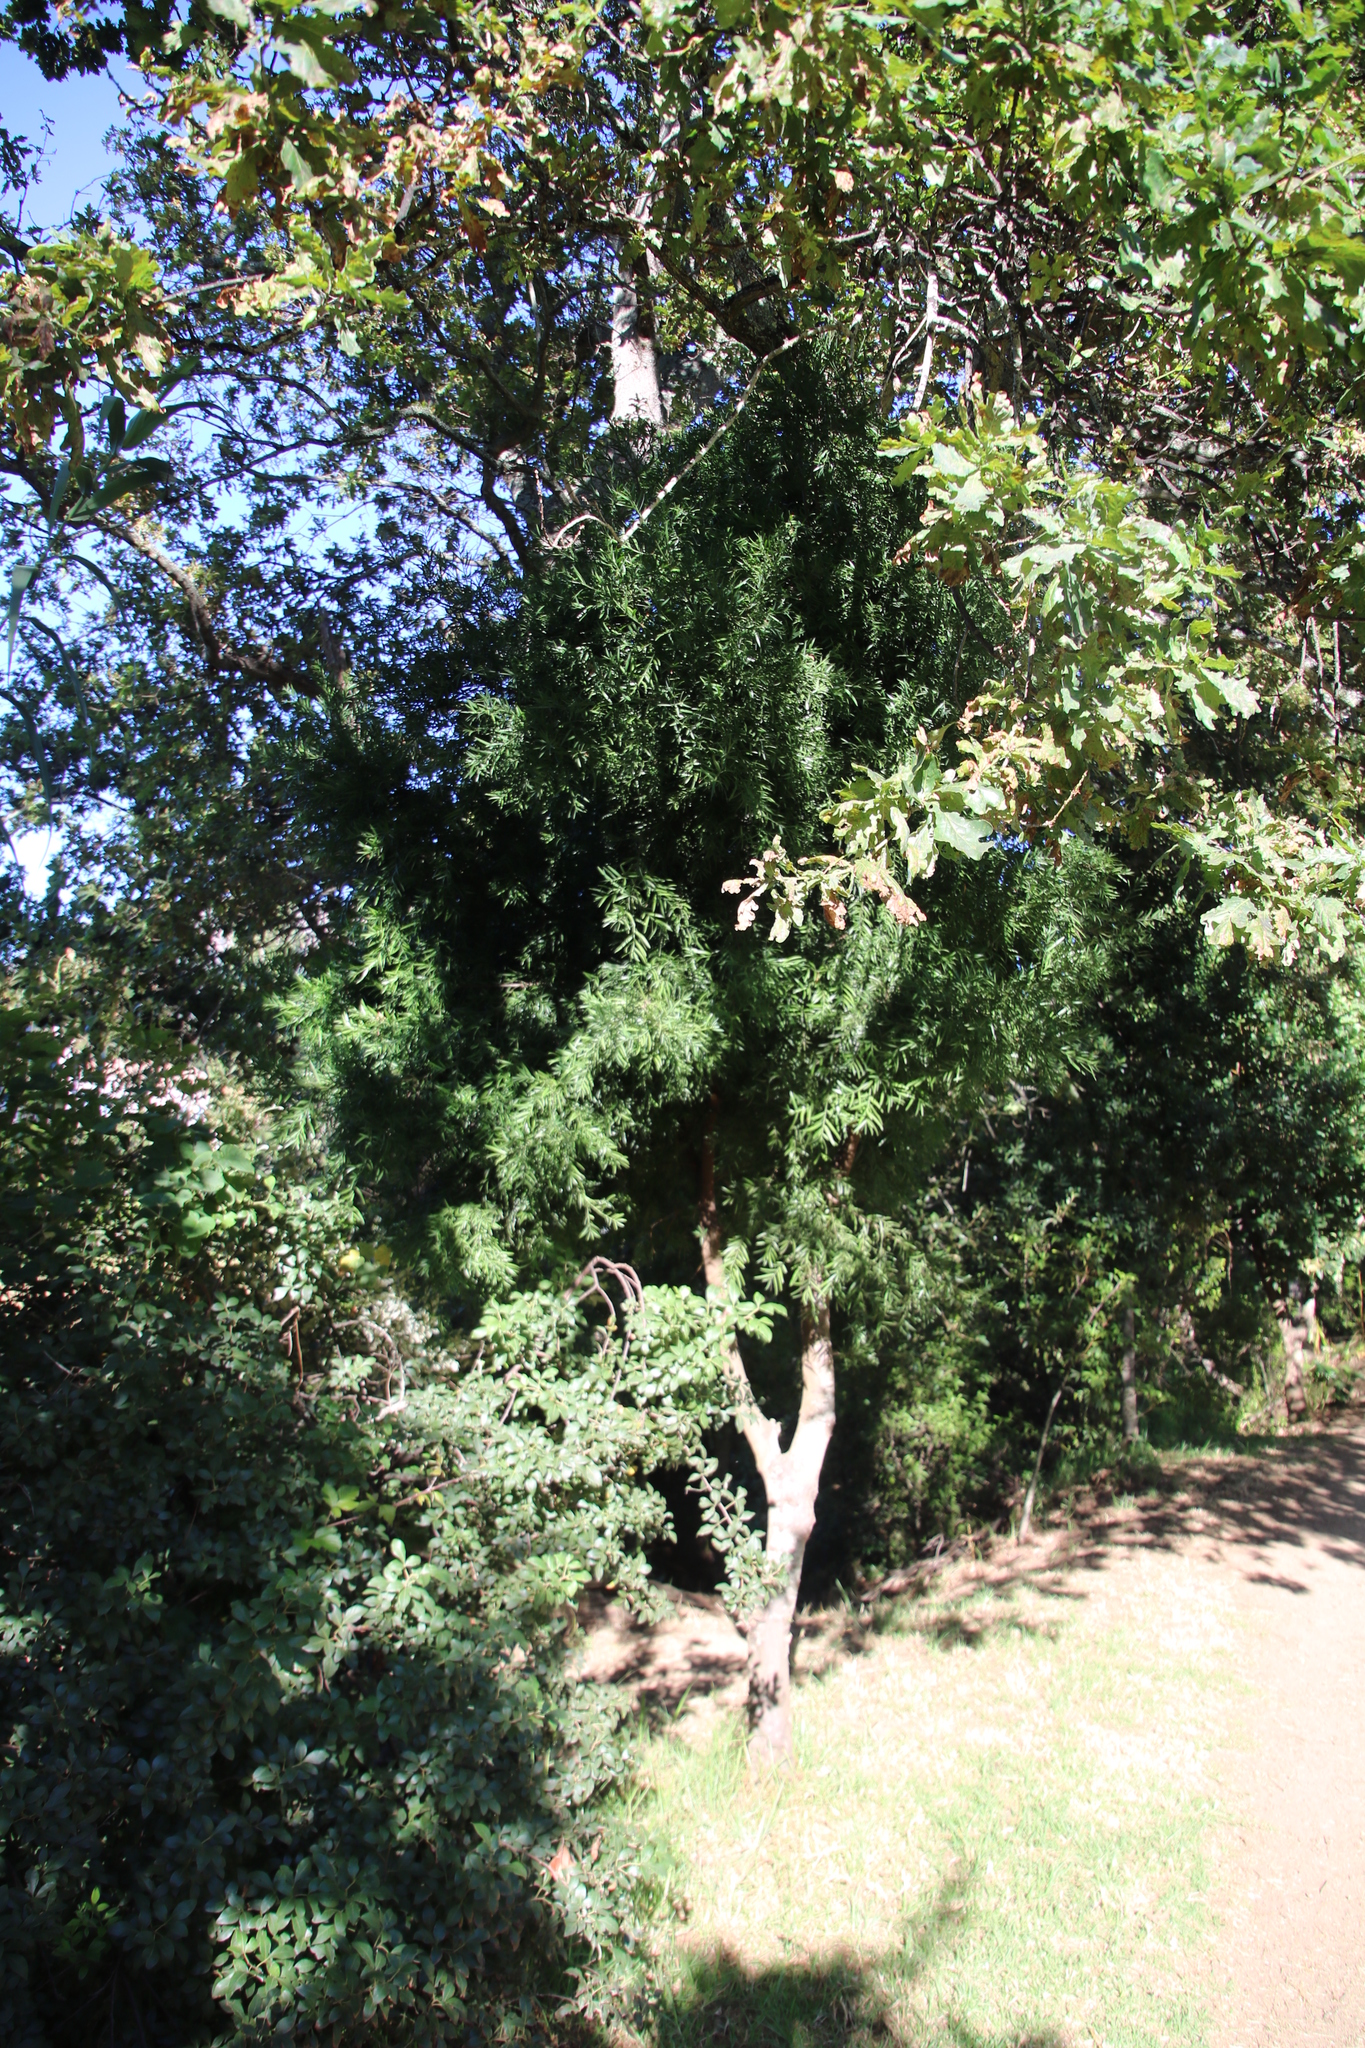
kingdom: Plantae
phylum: Tracheophyta
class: Pinopsida
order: Pinales
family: Podocarpaceae
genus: Afrocarpus
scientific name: Afrocarpus falcatus
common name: Bastard yellowwood
